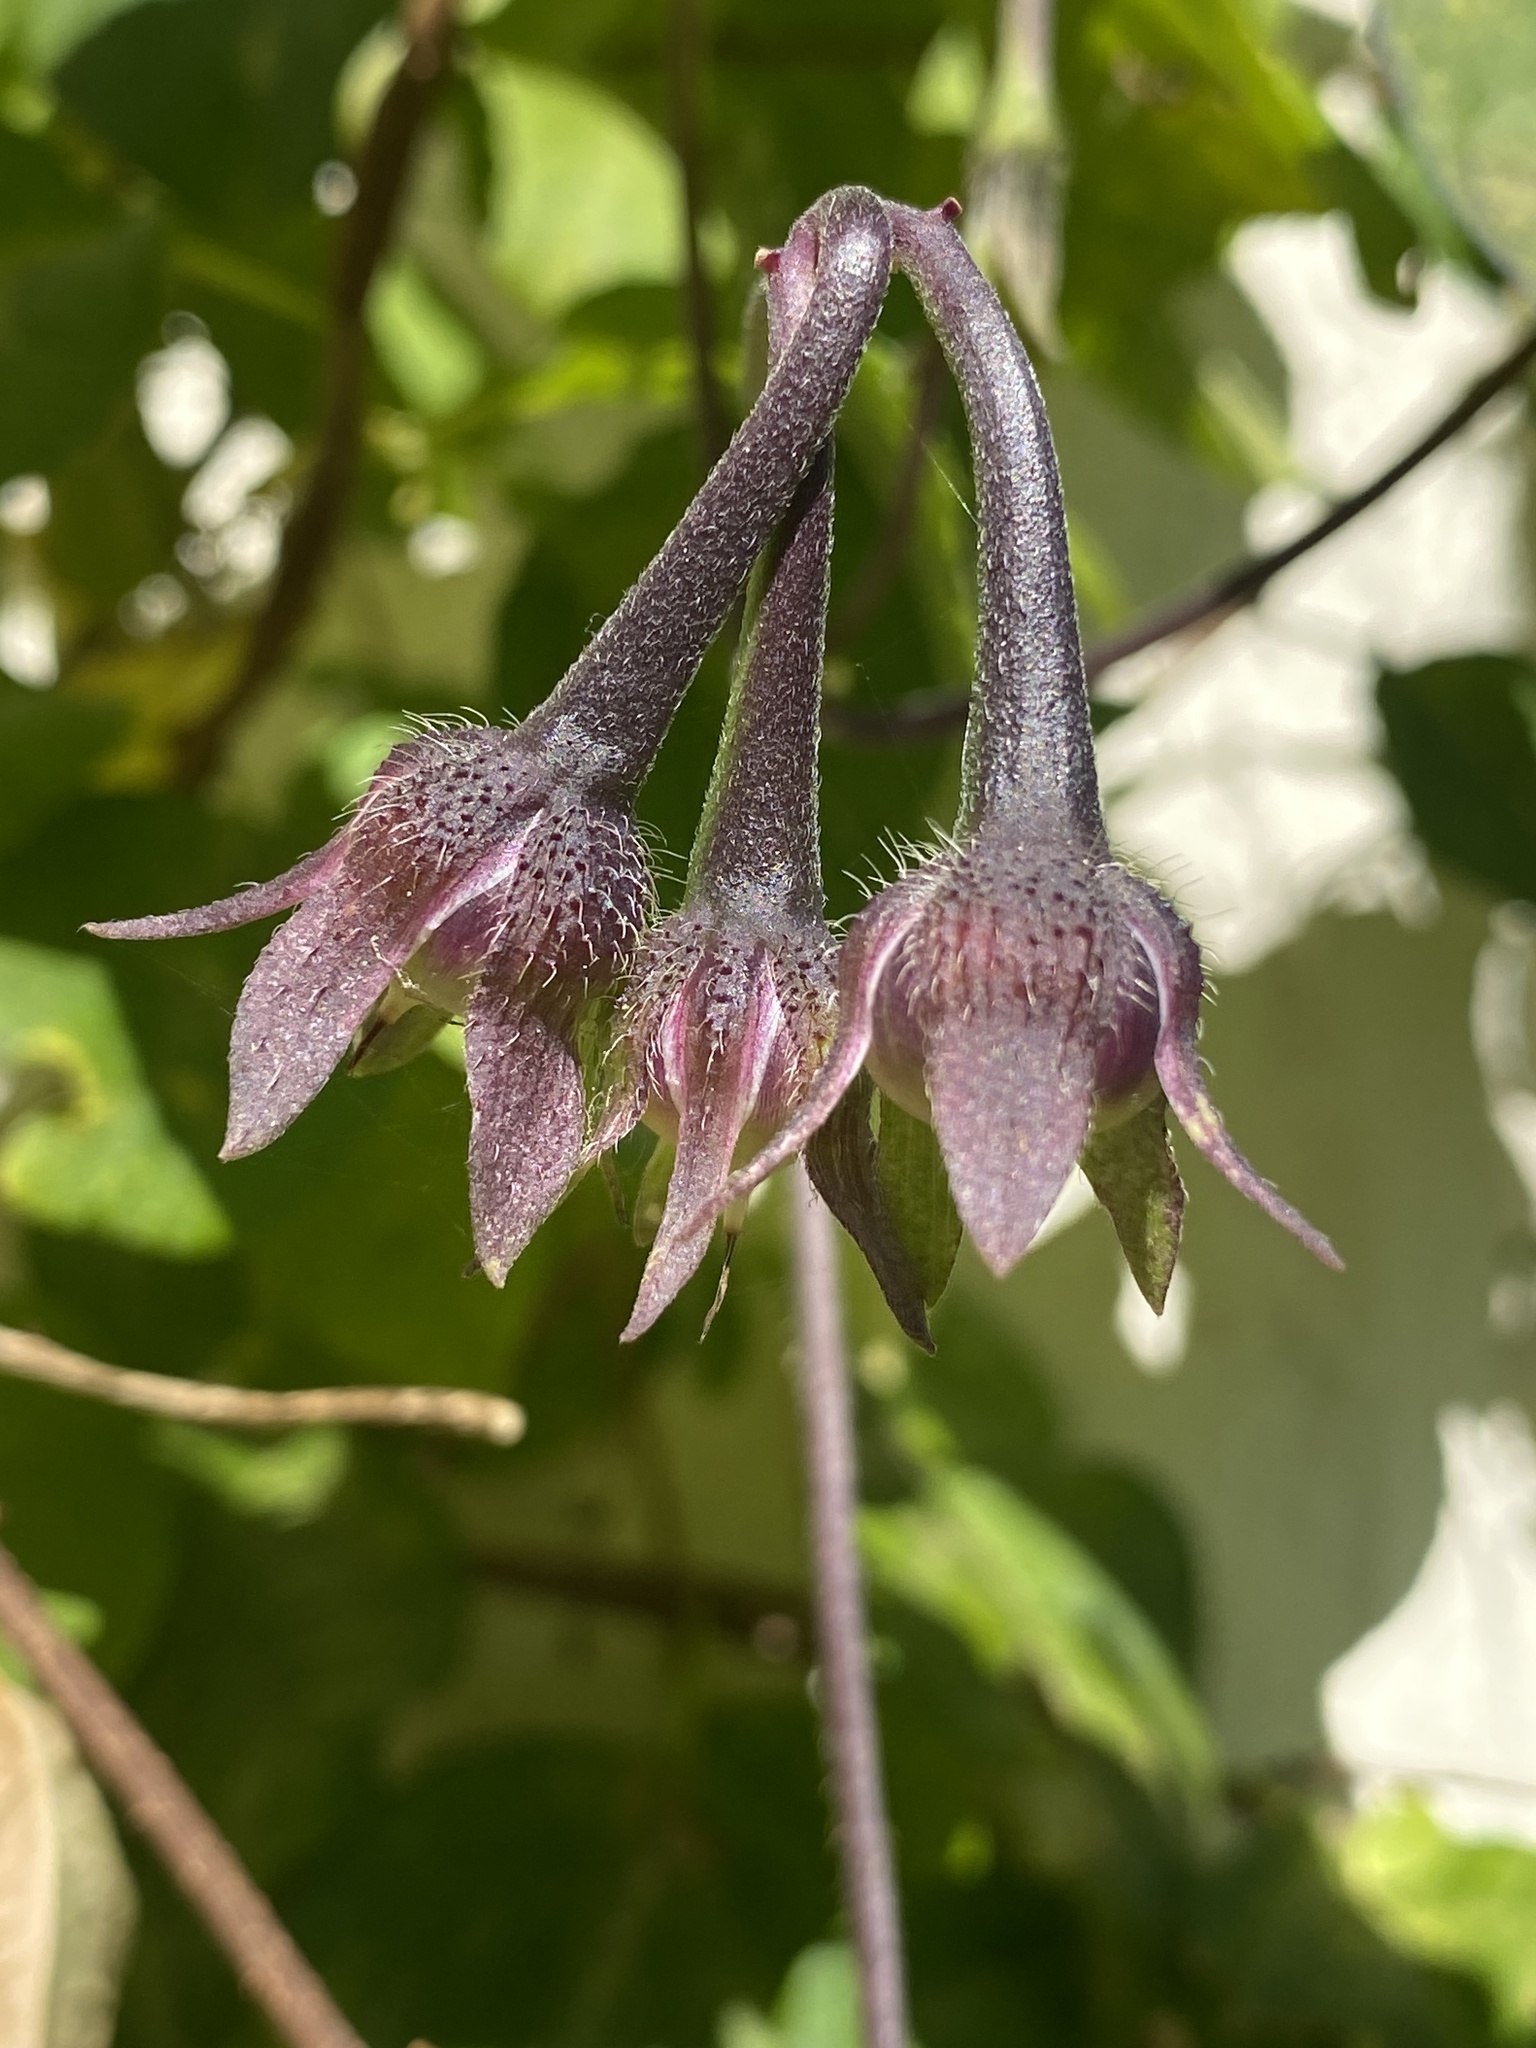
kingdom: Plantae
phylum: Tracheophyta
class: Magnoliopsida
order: Solanales
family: Convolvulaceae
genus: Ipomoea
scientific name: Ipomoea purpurea
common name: Common morning-glory
